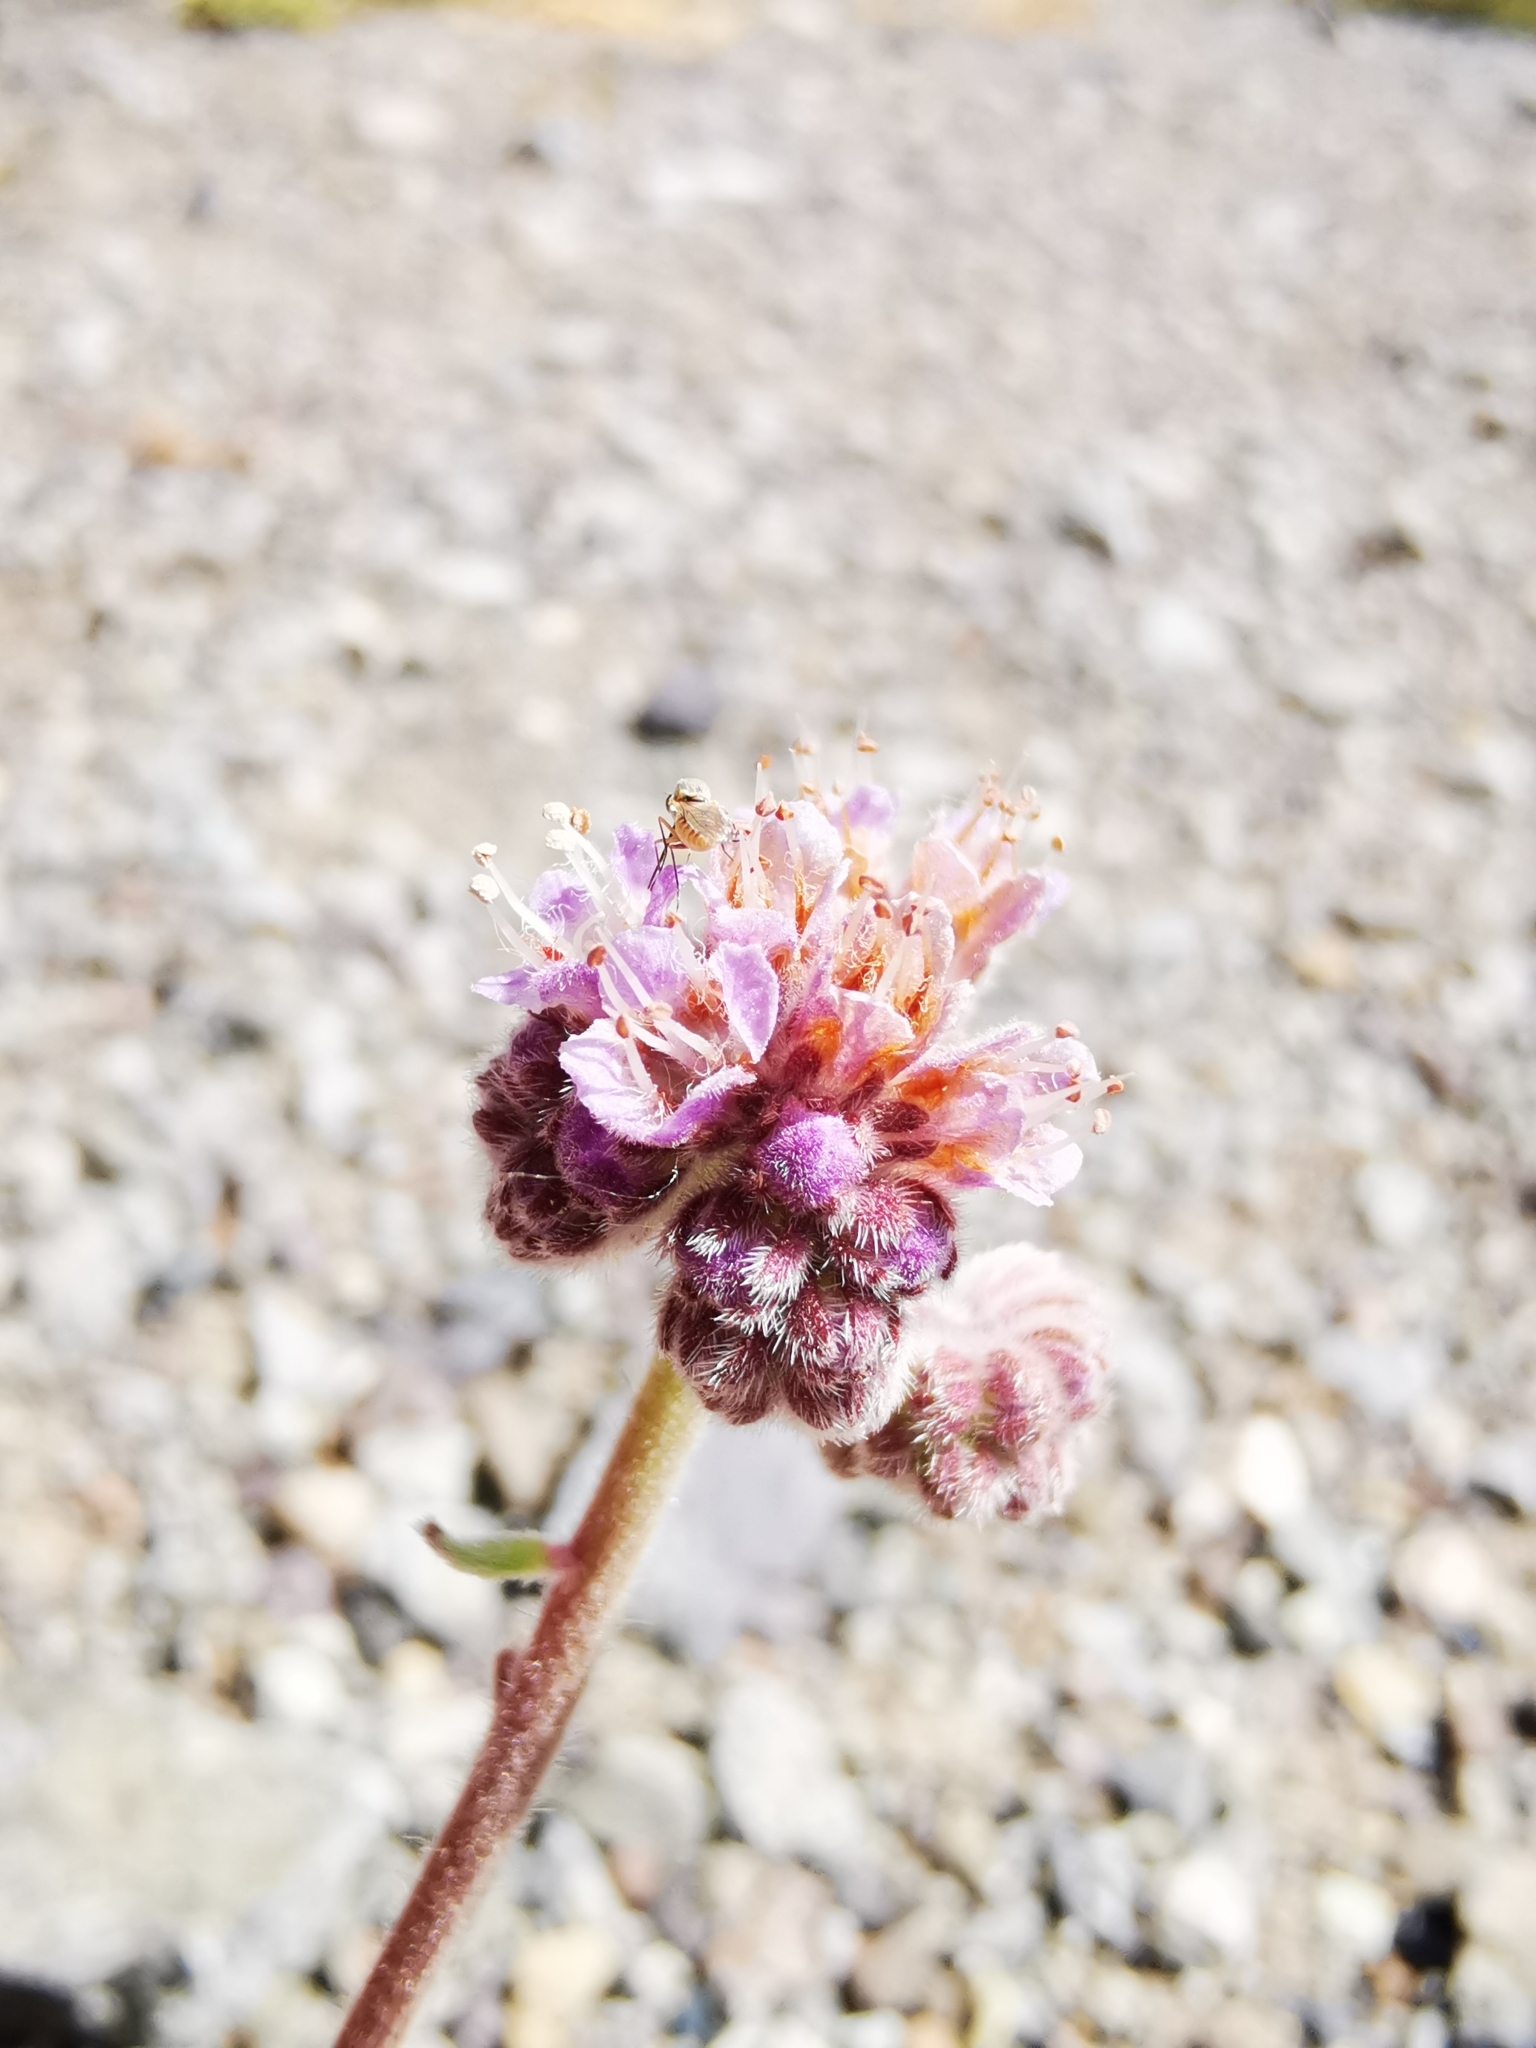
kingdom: Plantae
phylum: Tracheophyta
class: Magnoliopsida
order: Boraginales
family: Hydrophyllaceae
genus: Phacelia
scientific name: Phacelia secunda
